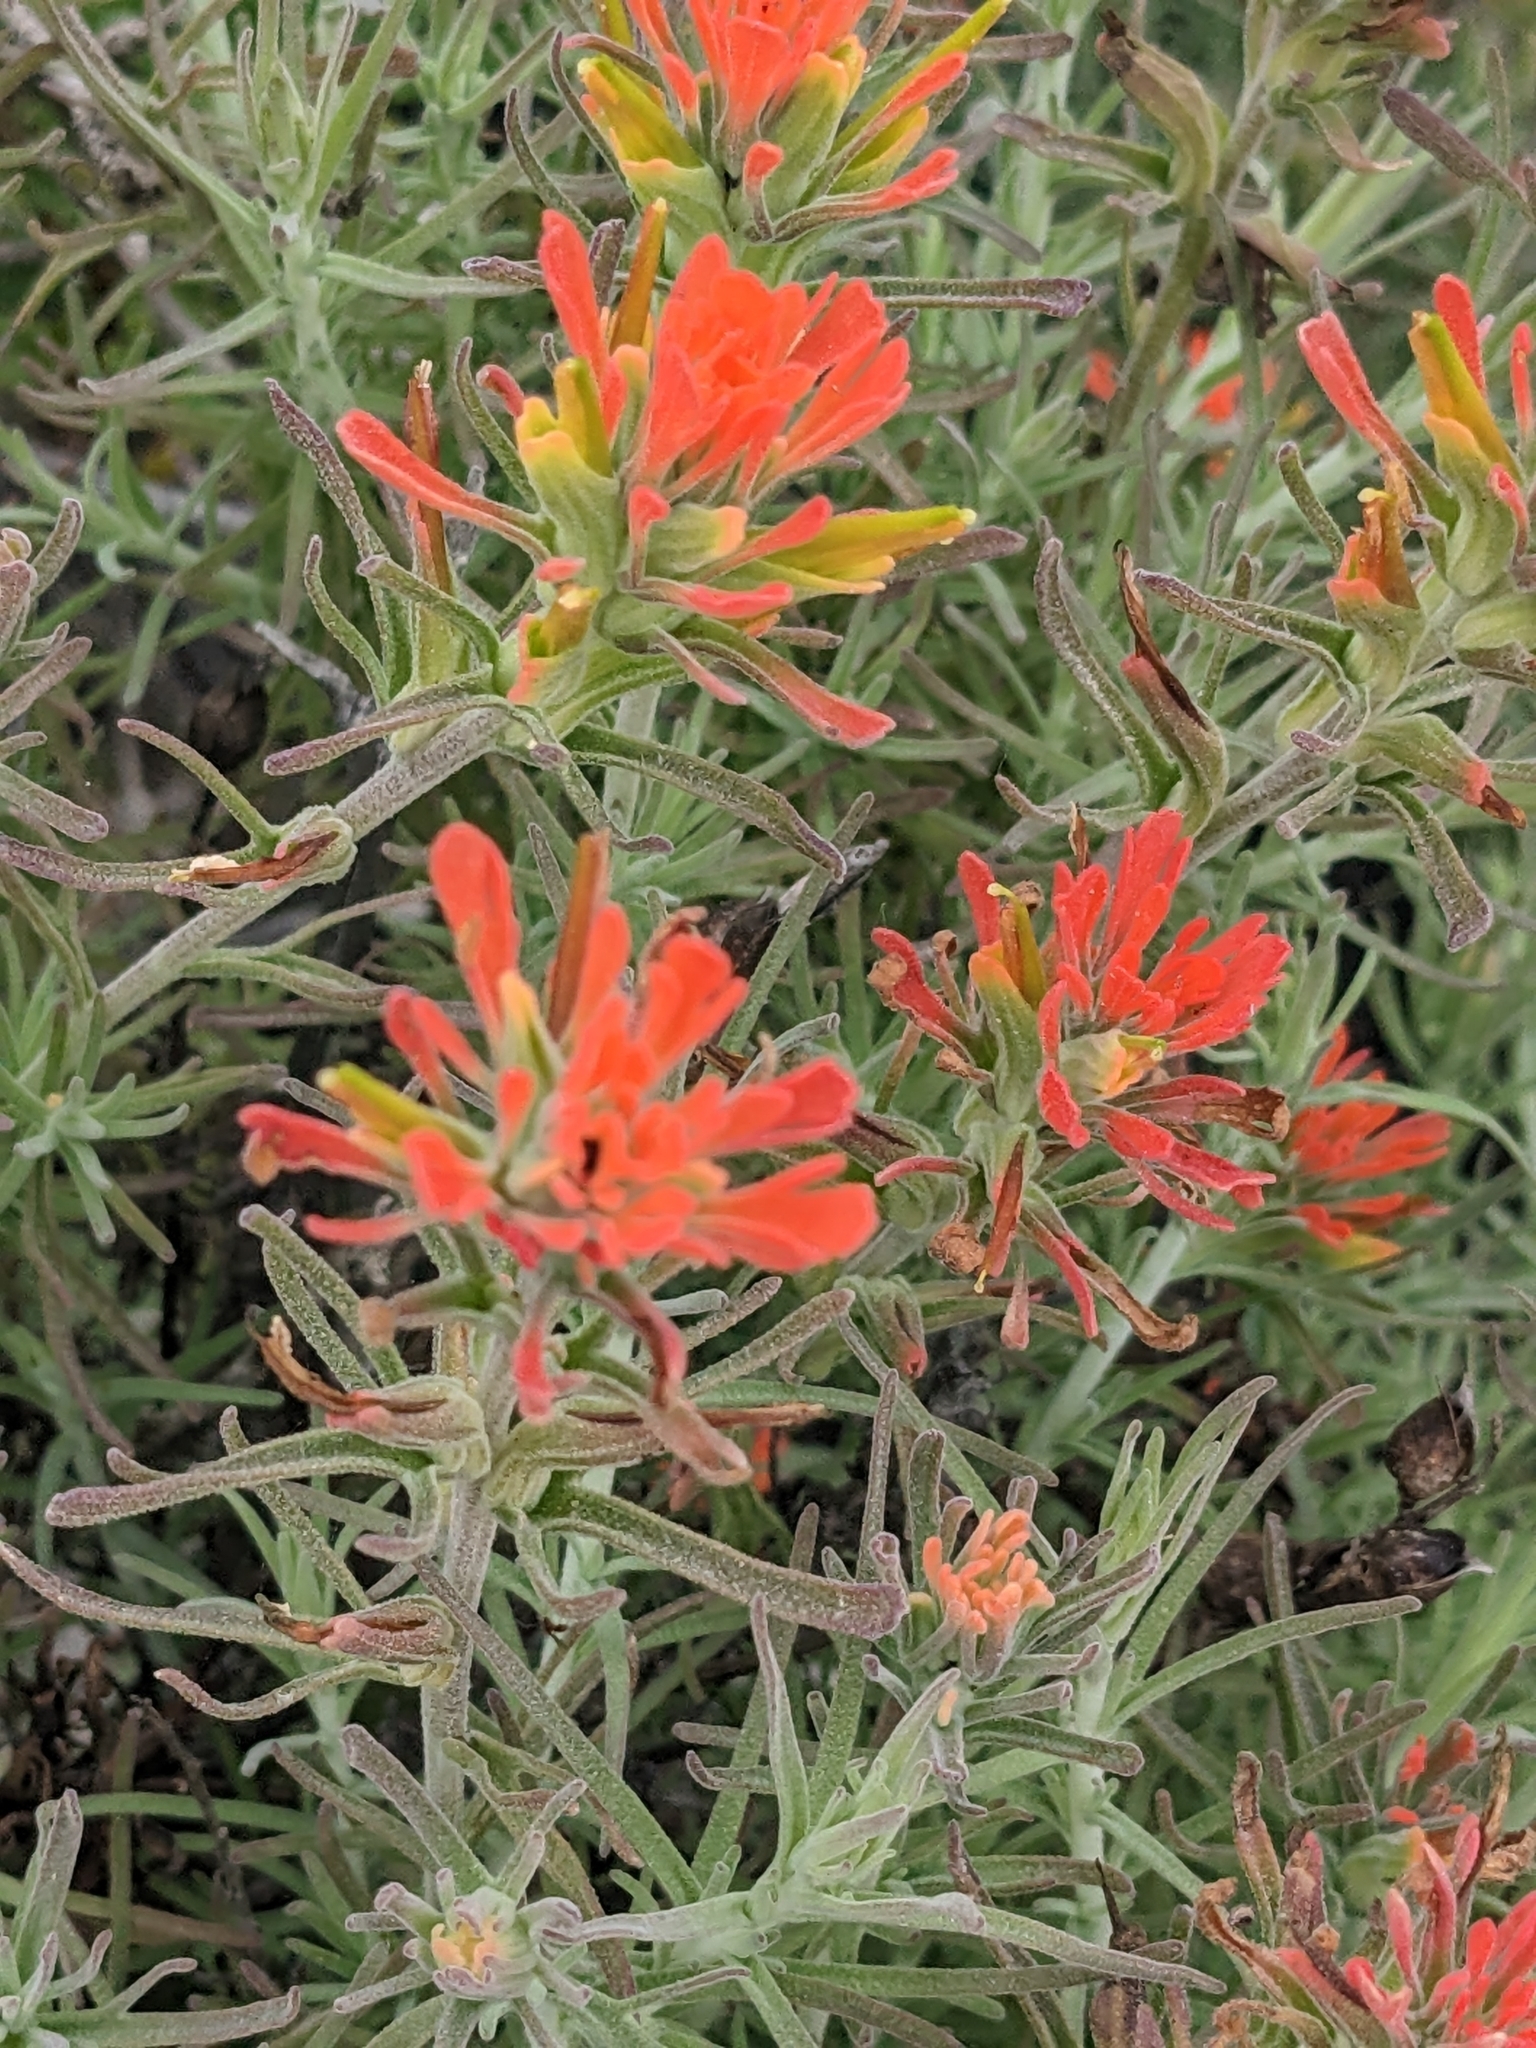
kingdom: Plantae
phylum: Tracheophyta
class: Magnoliopsida
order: Lamiales
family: Orobanchaceae
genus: Castilleja
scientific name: Castilleja foliolosa
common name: Woolly indian paintbrush
